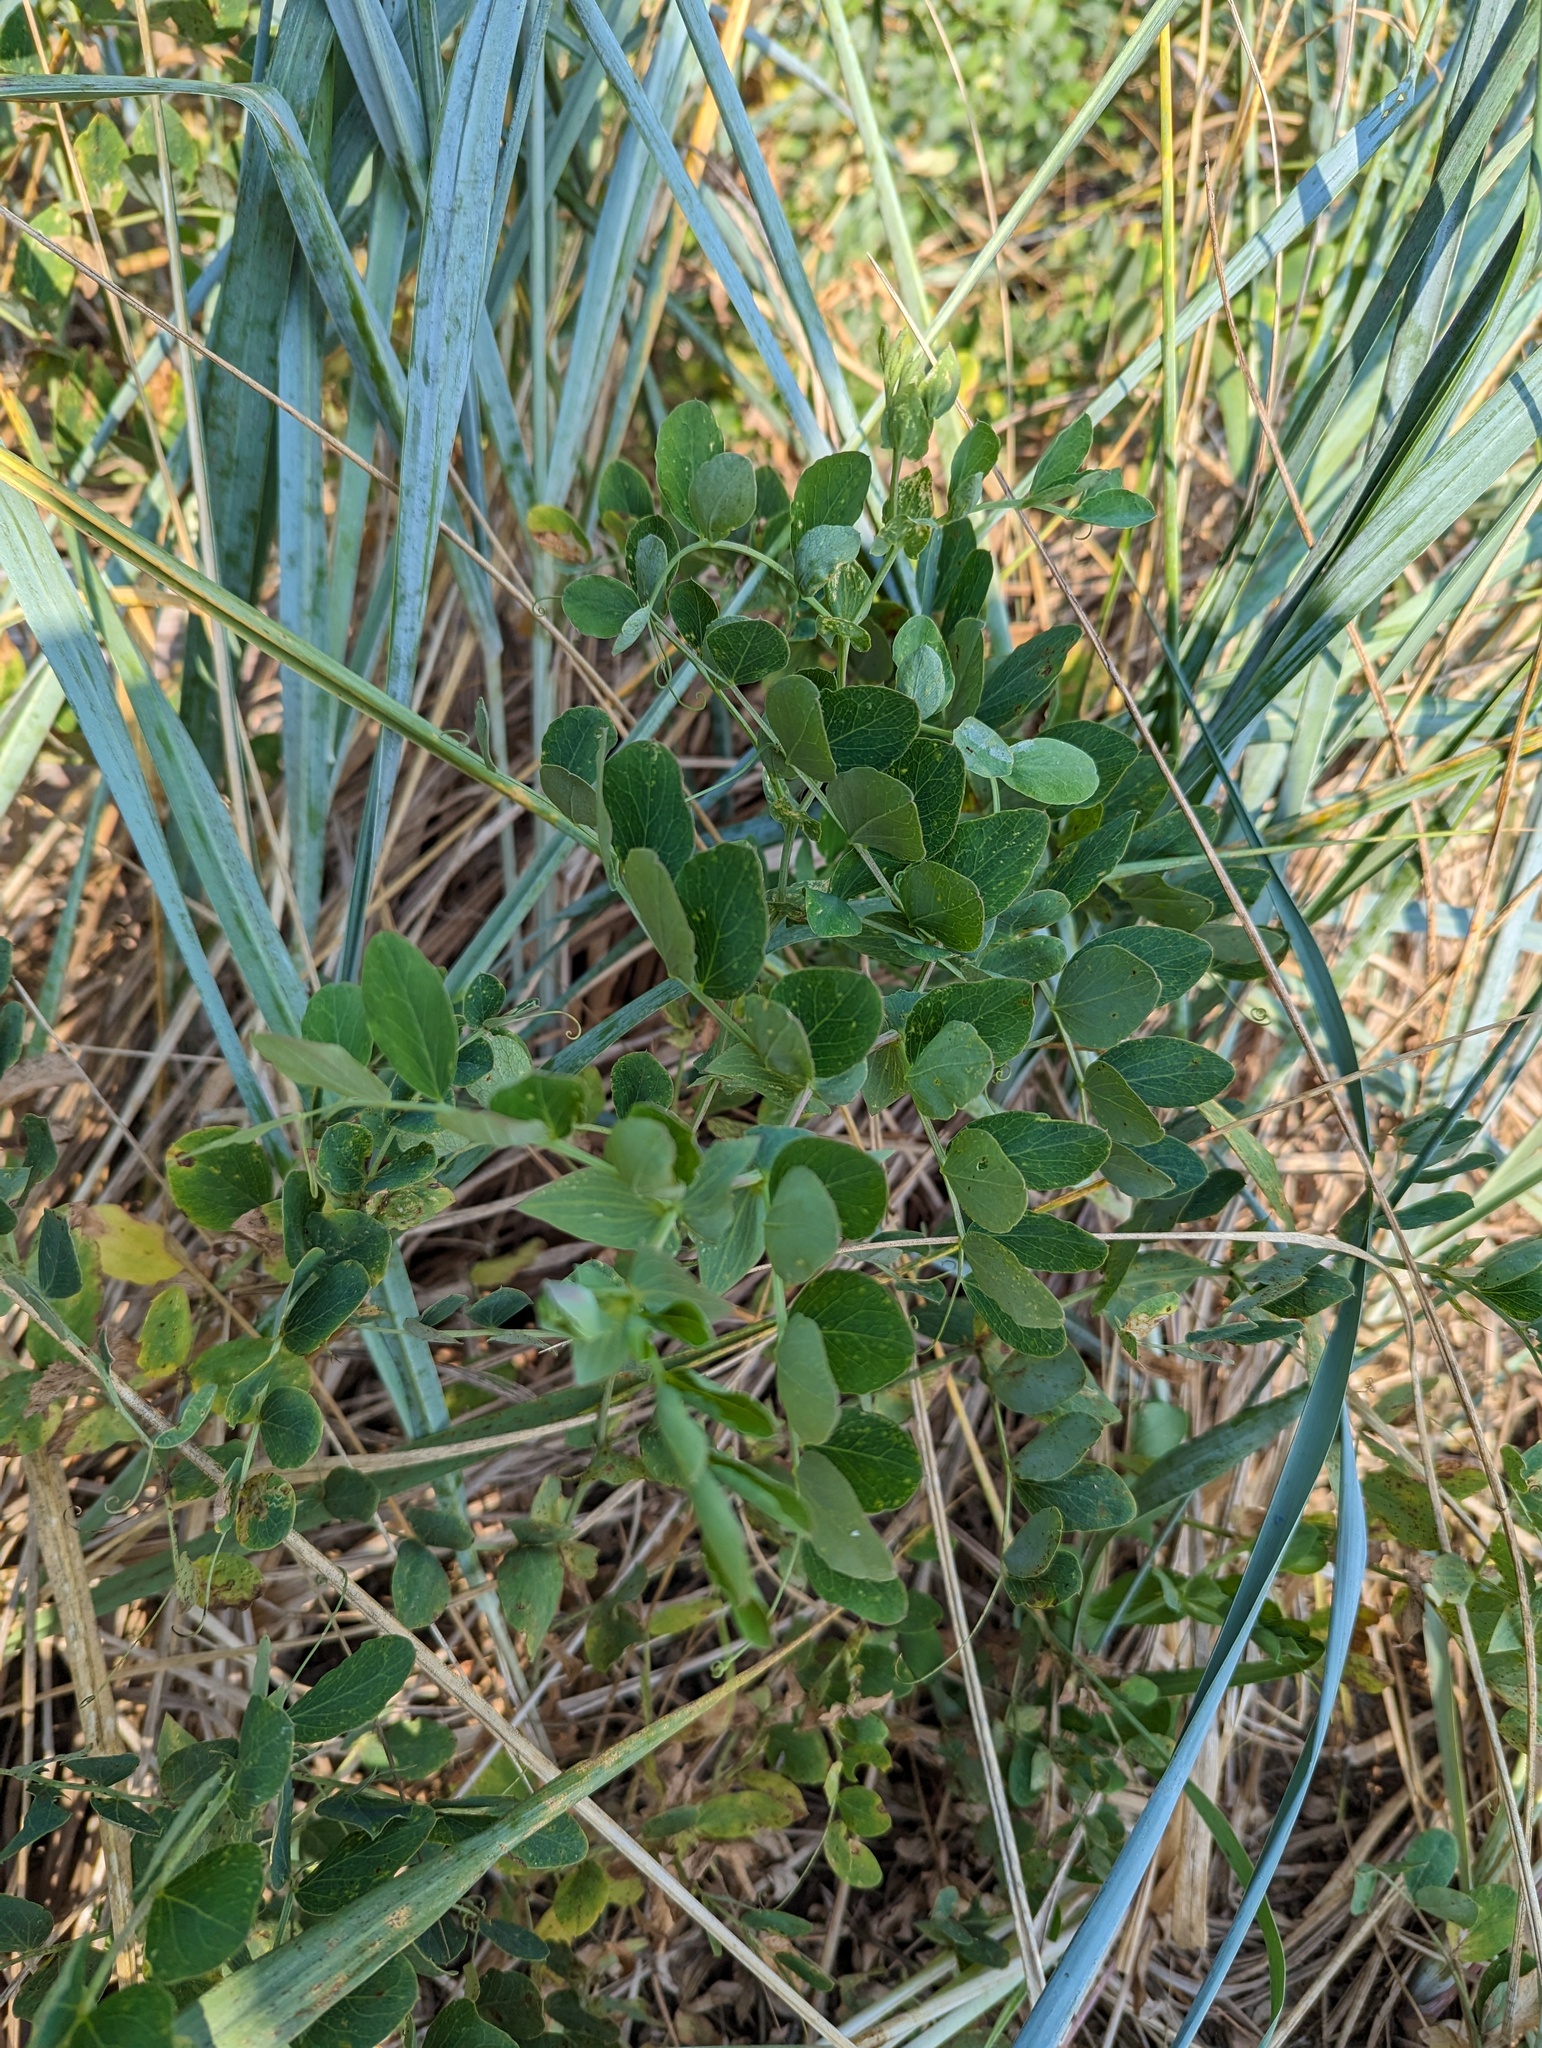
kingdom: Plantae
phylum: Tracheophyta
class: Magnoliopsida
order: Fabales
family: Fabaceae
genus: Lathyrus
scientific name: Lathyrus japonicus
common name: Sea pea
